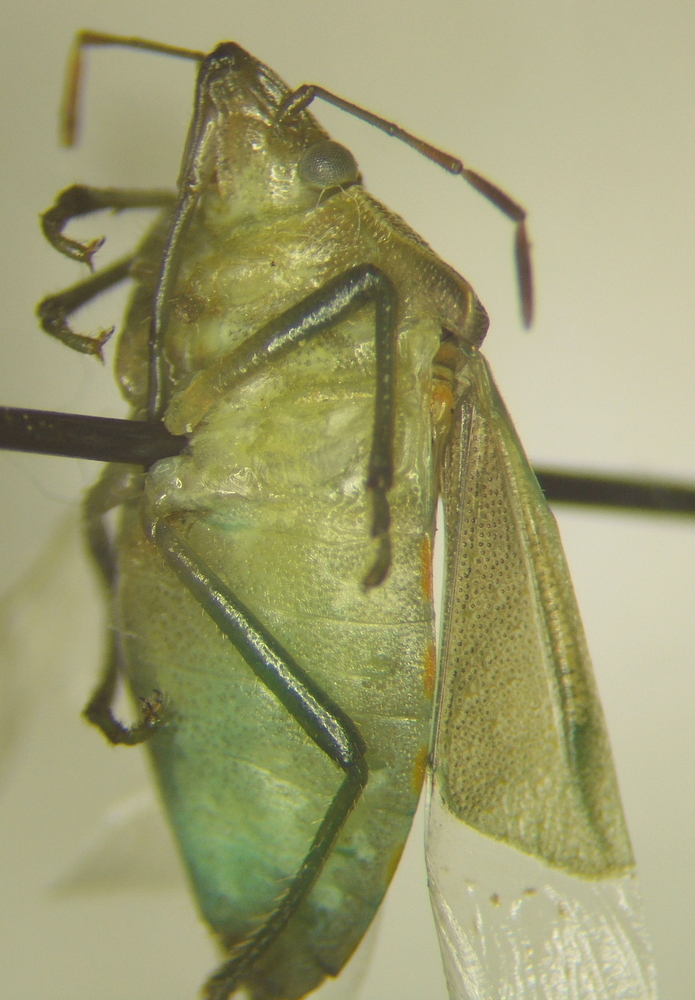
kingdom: Animalia
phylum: Arthropoda
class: Insecta
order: Hemiptera
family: Pentatomidae
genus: Thyanta
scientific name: Thyanta custator
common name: Stink bug
